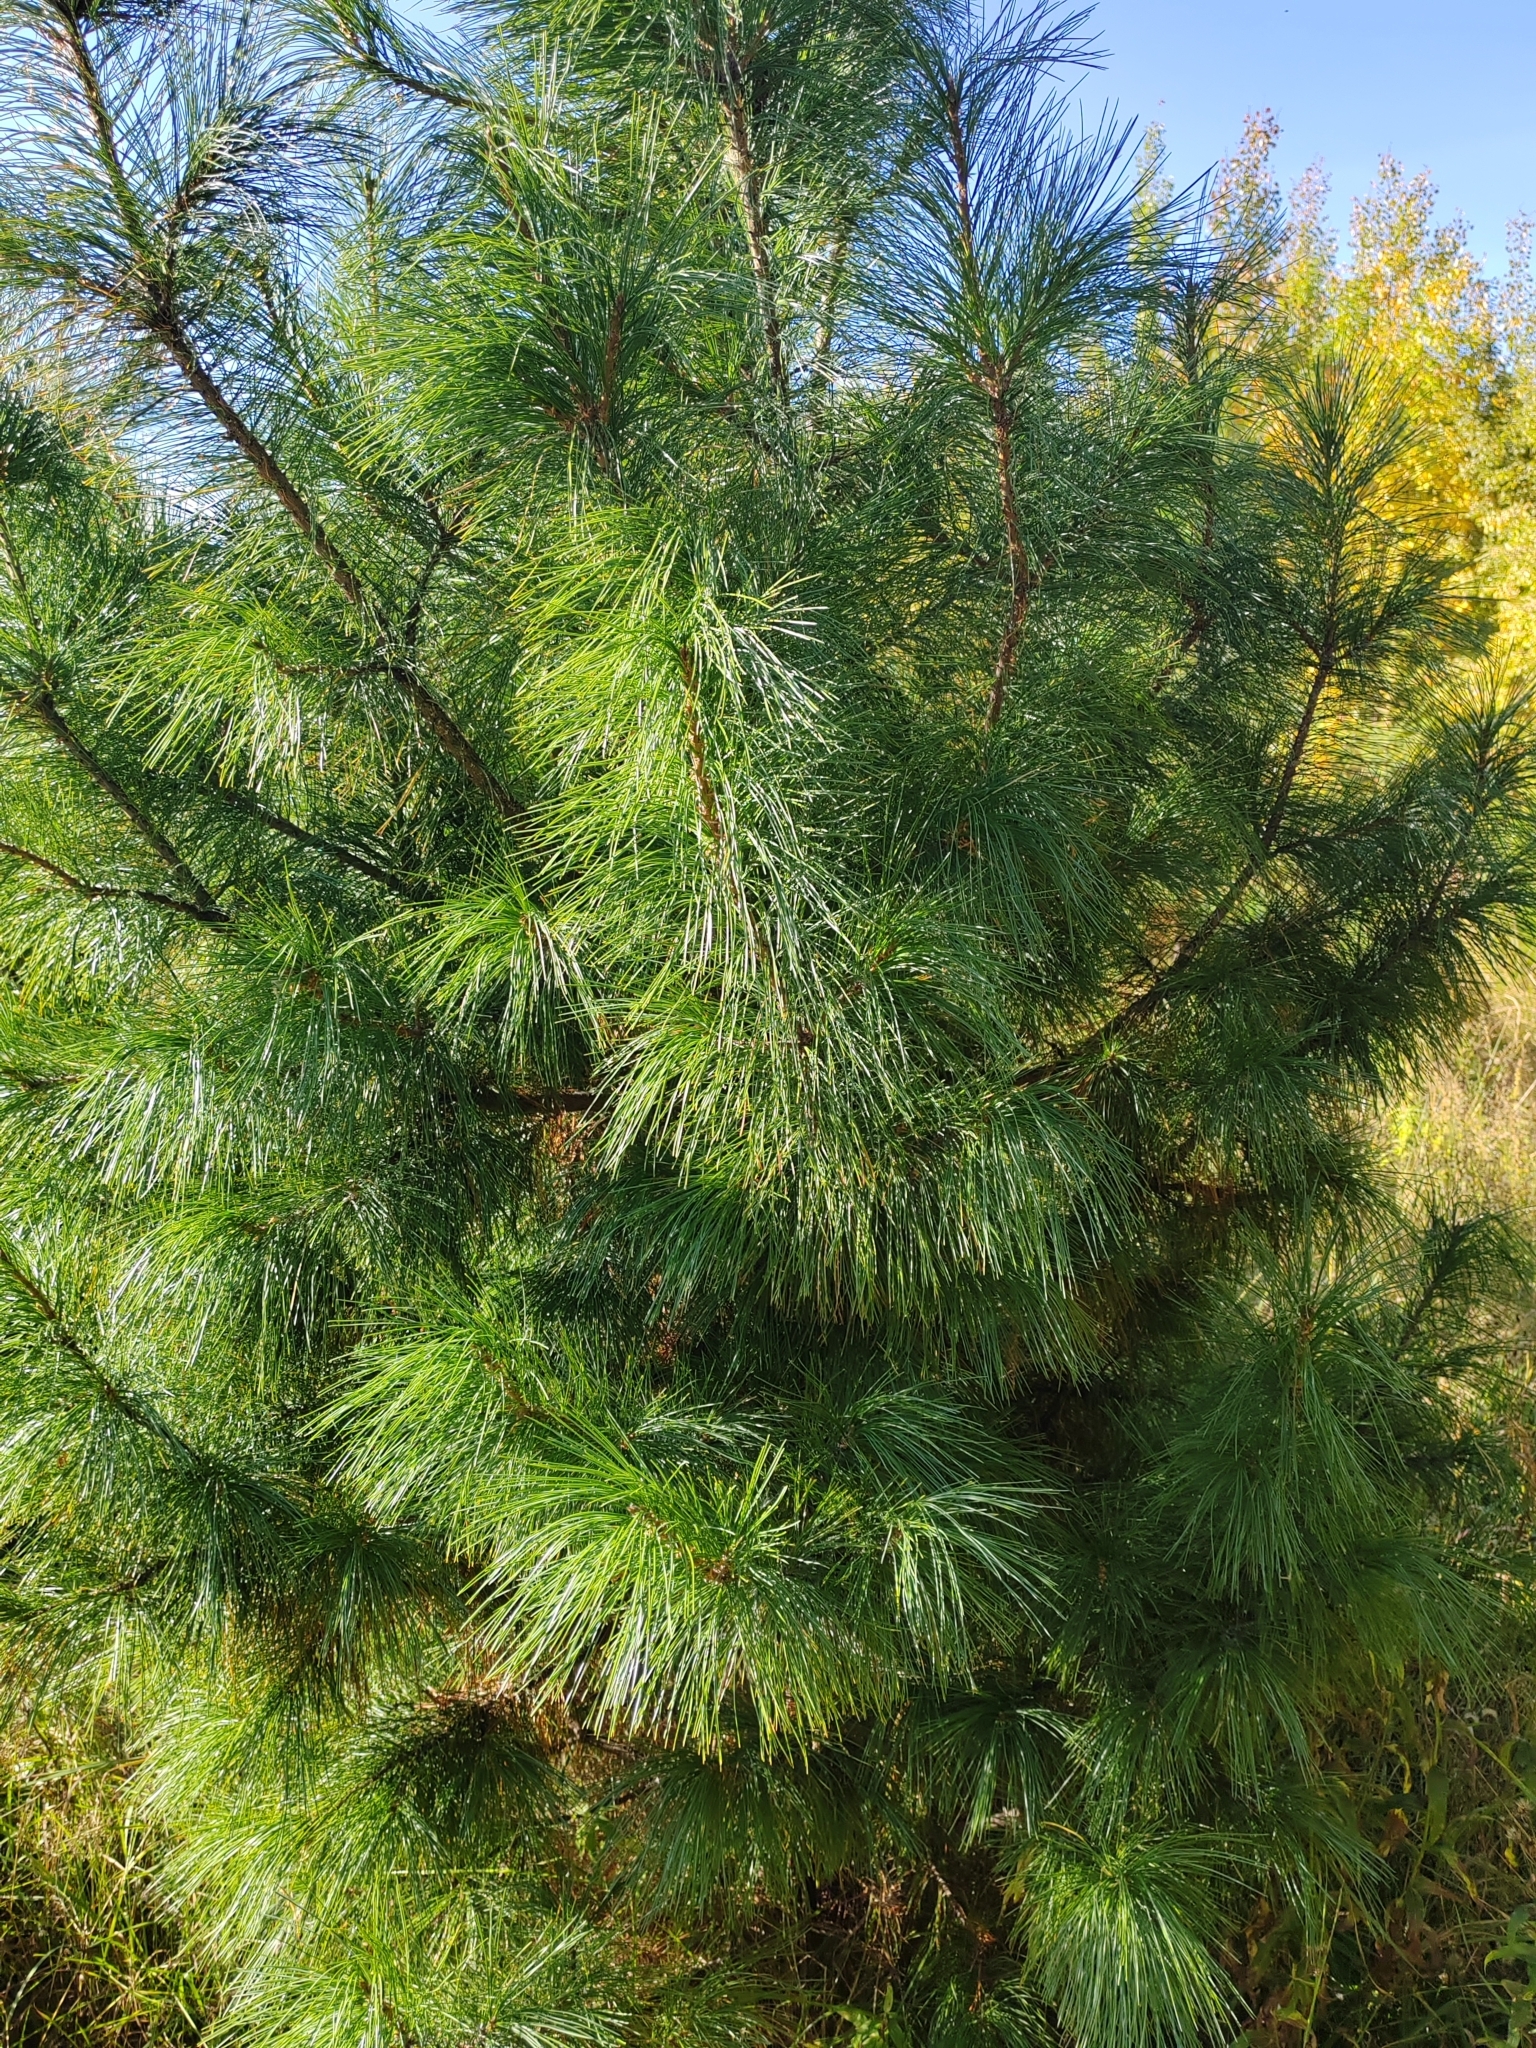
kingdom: Plantae
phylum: Tracheophyta
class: Pinopsida
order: Pinales
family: Pinaceae
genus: Pinus
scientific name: Pinus sibirica
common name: Siberian pine
